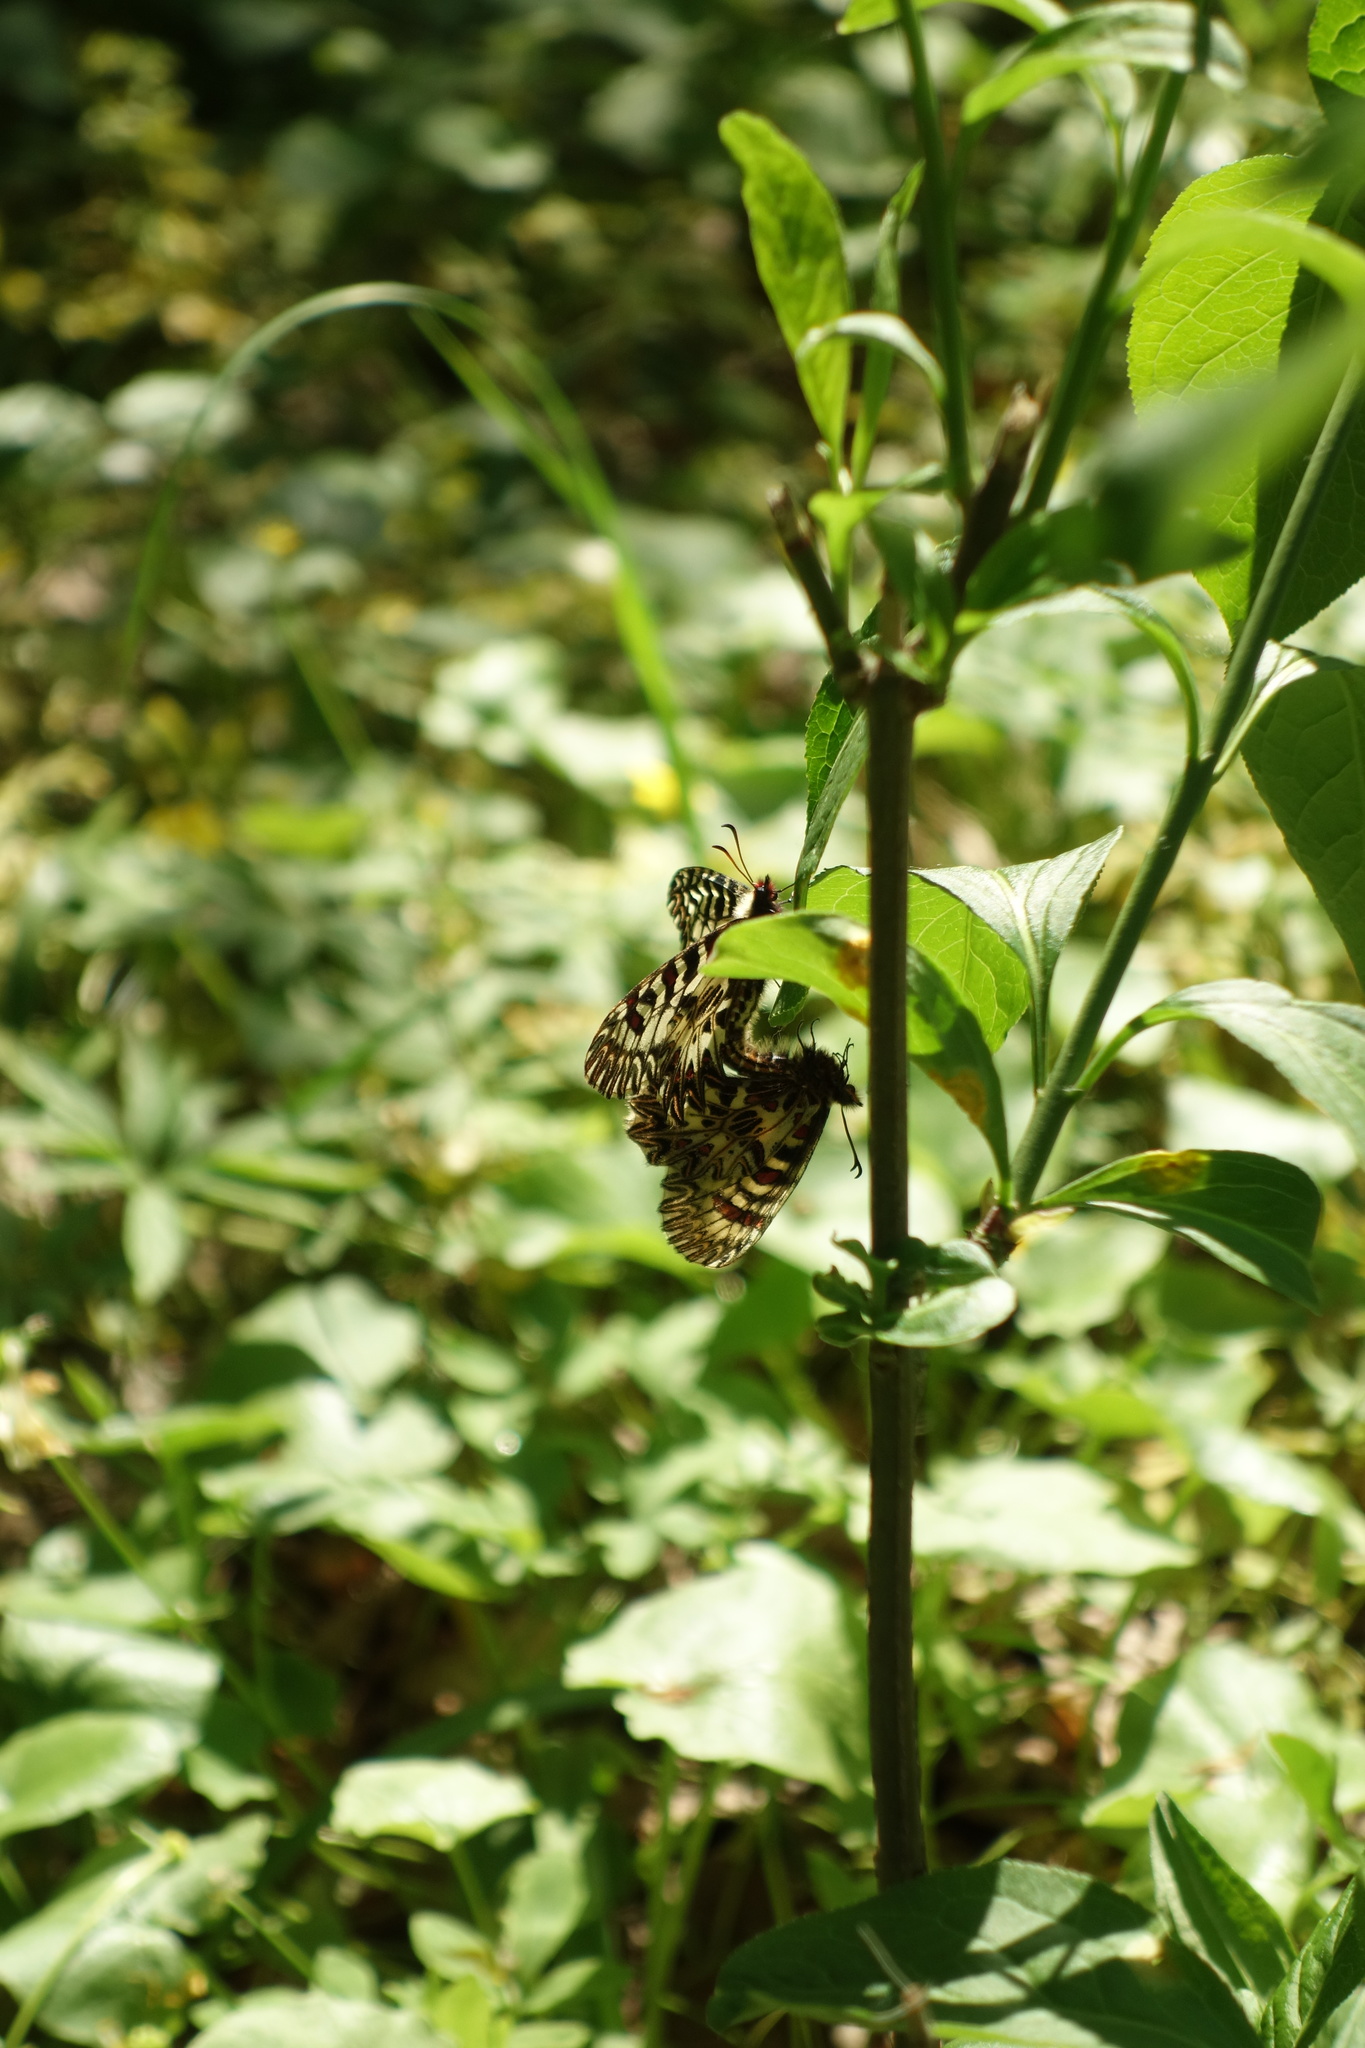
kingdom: Animalia
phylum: Arthropoda
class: Insecta
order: Lepidoptera
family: Papilionidae
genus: Zerynthia
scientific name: Zerynthia polyxena
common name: Southern festoon
